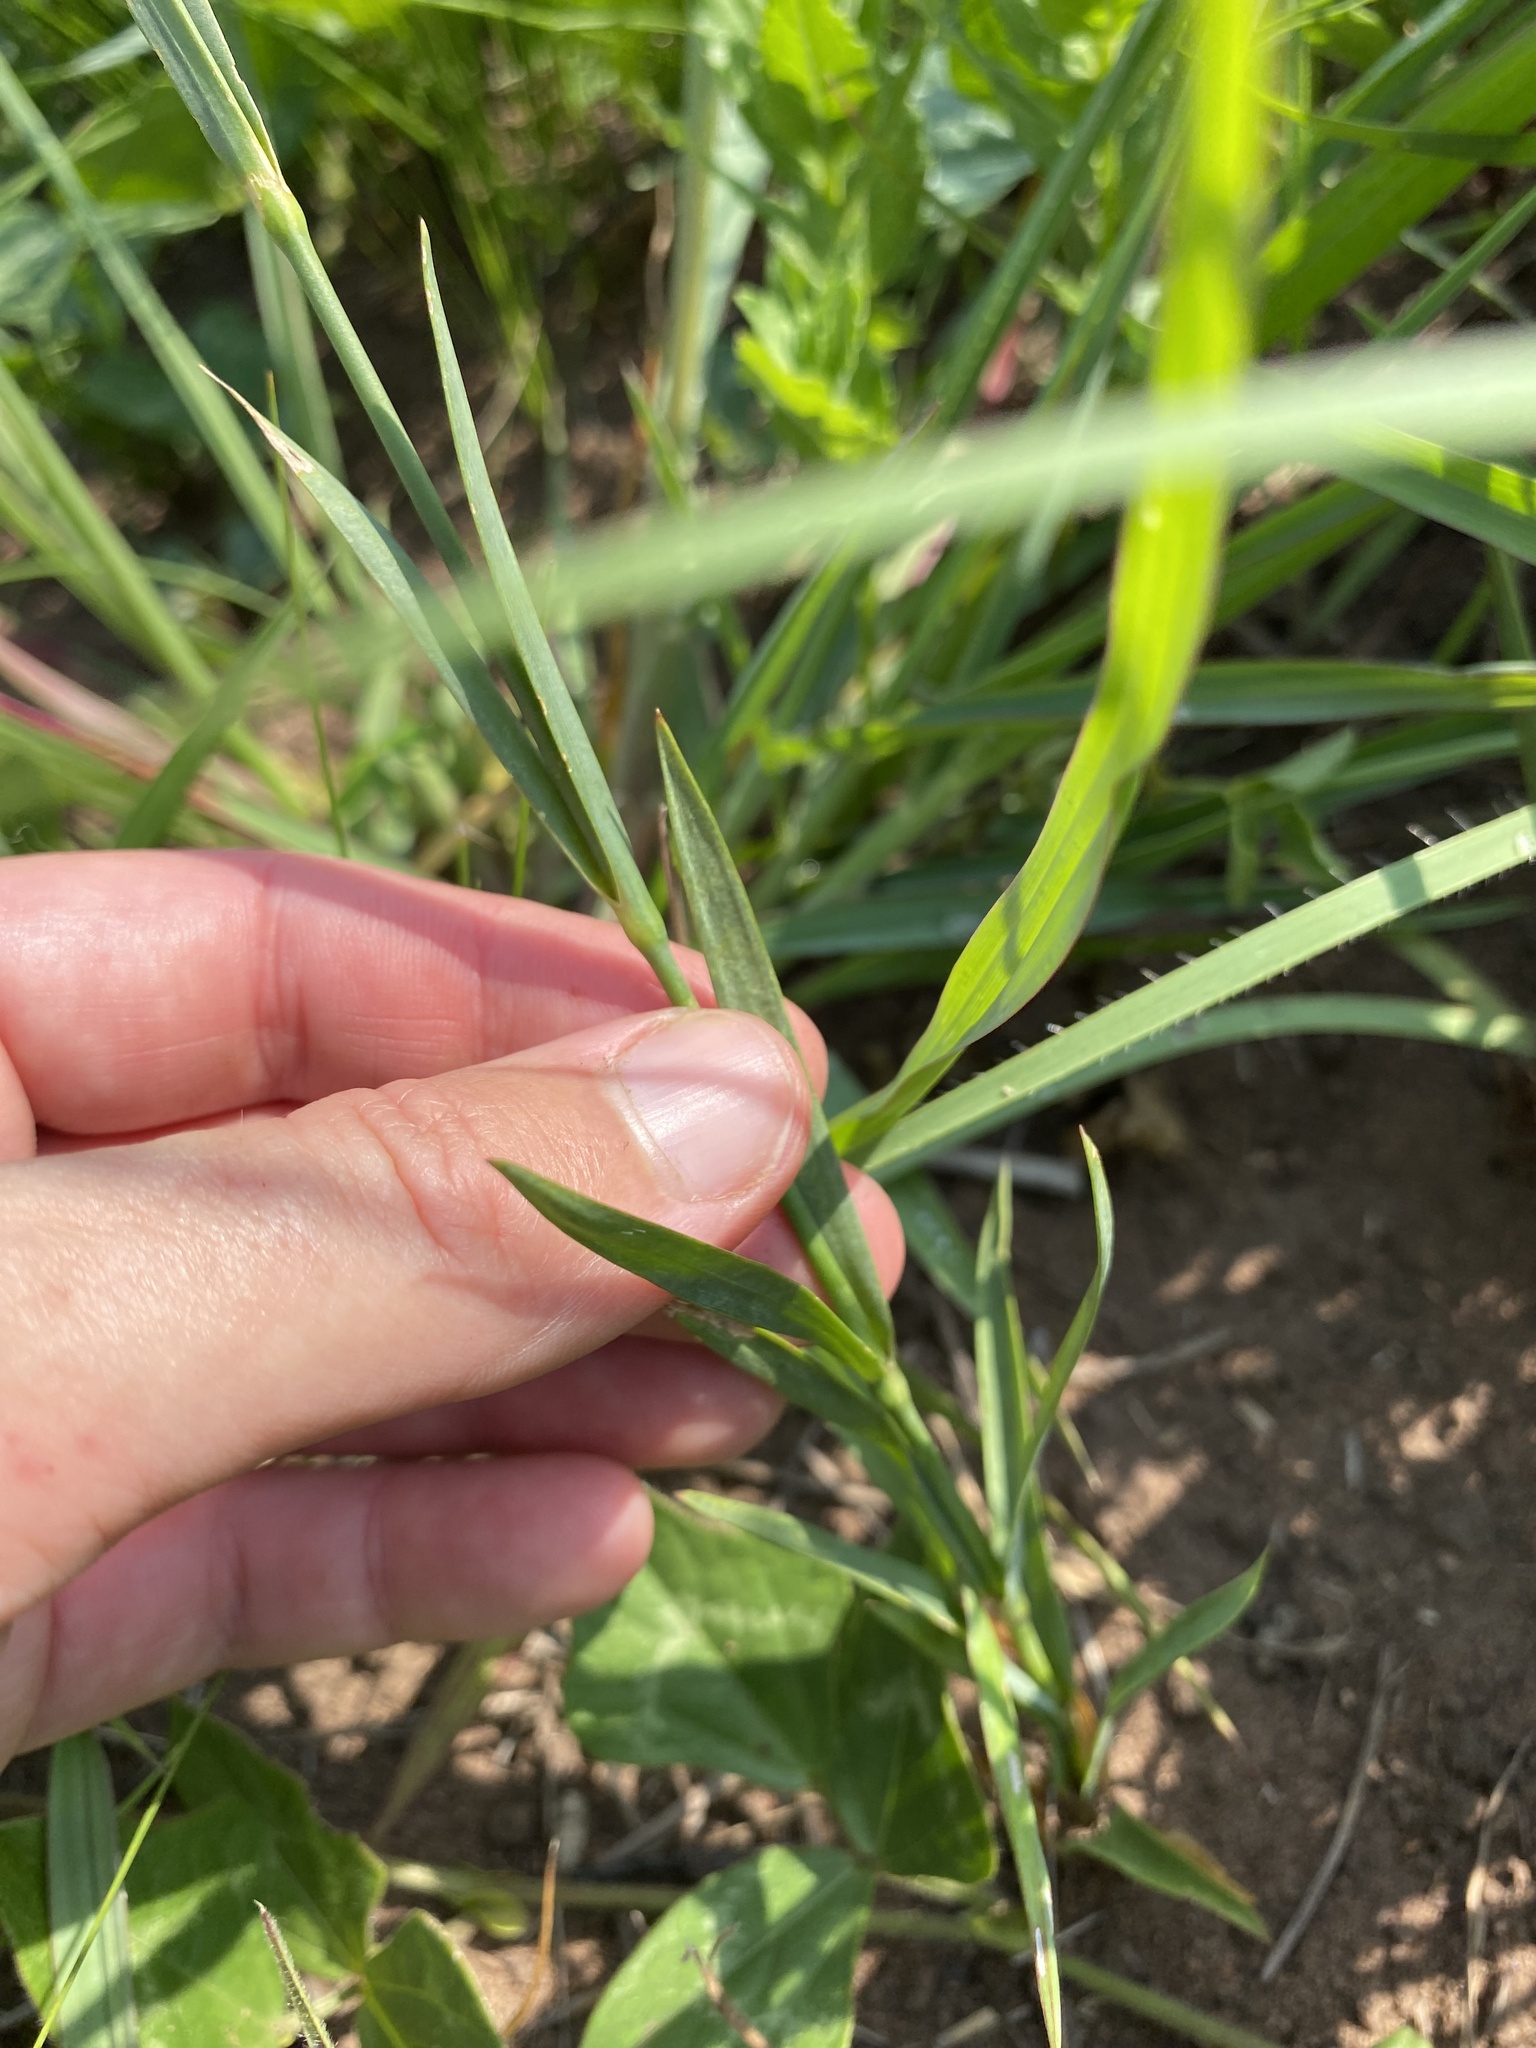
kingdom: Plantae
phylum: Tracheophyta
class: Magnoliopsida
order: Caryophyllales
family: Caryophyllaceae
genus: Dianthus
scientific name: Dianthus zeyheri
